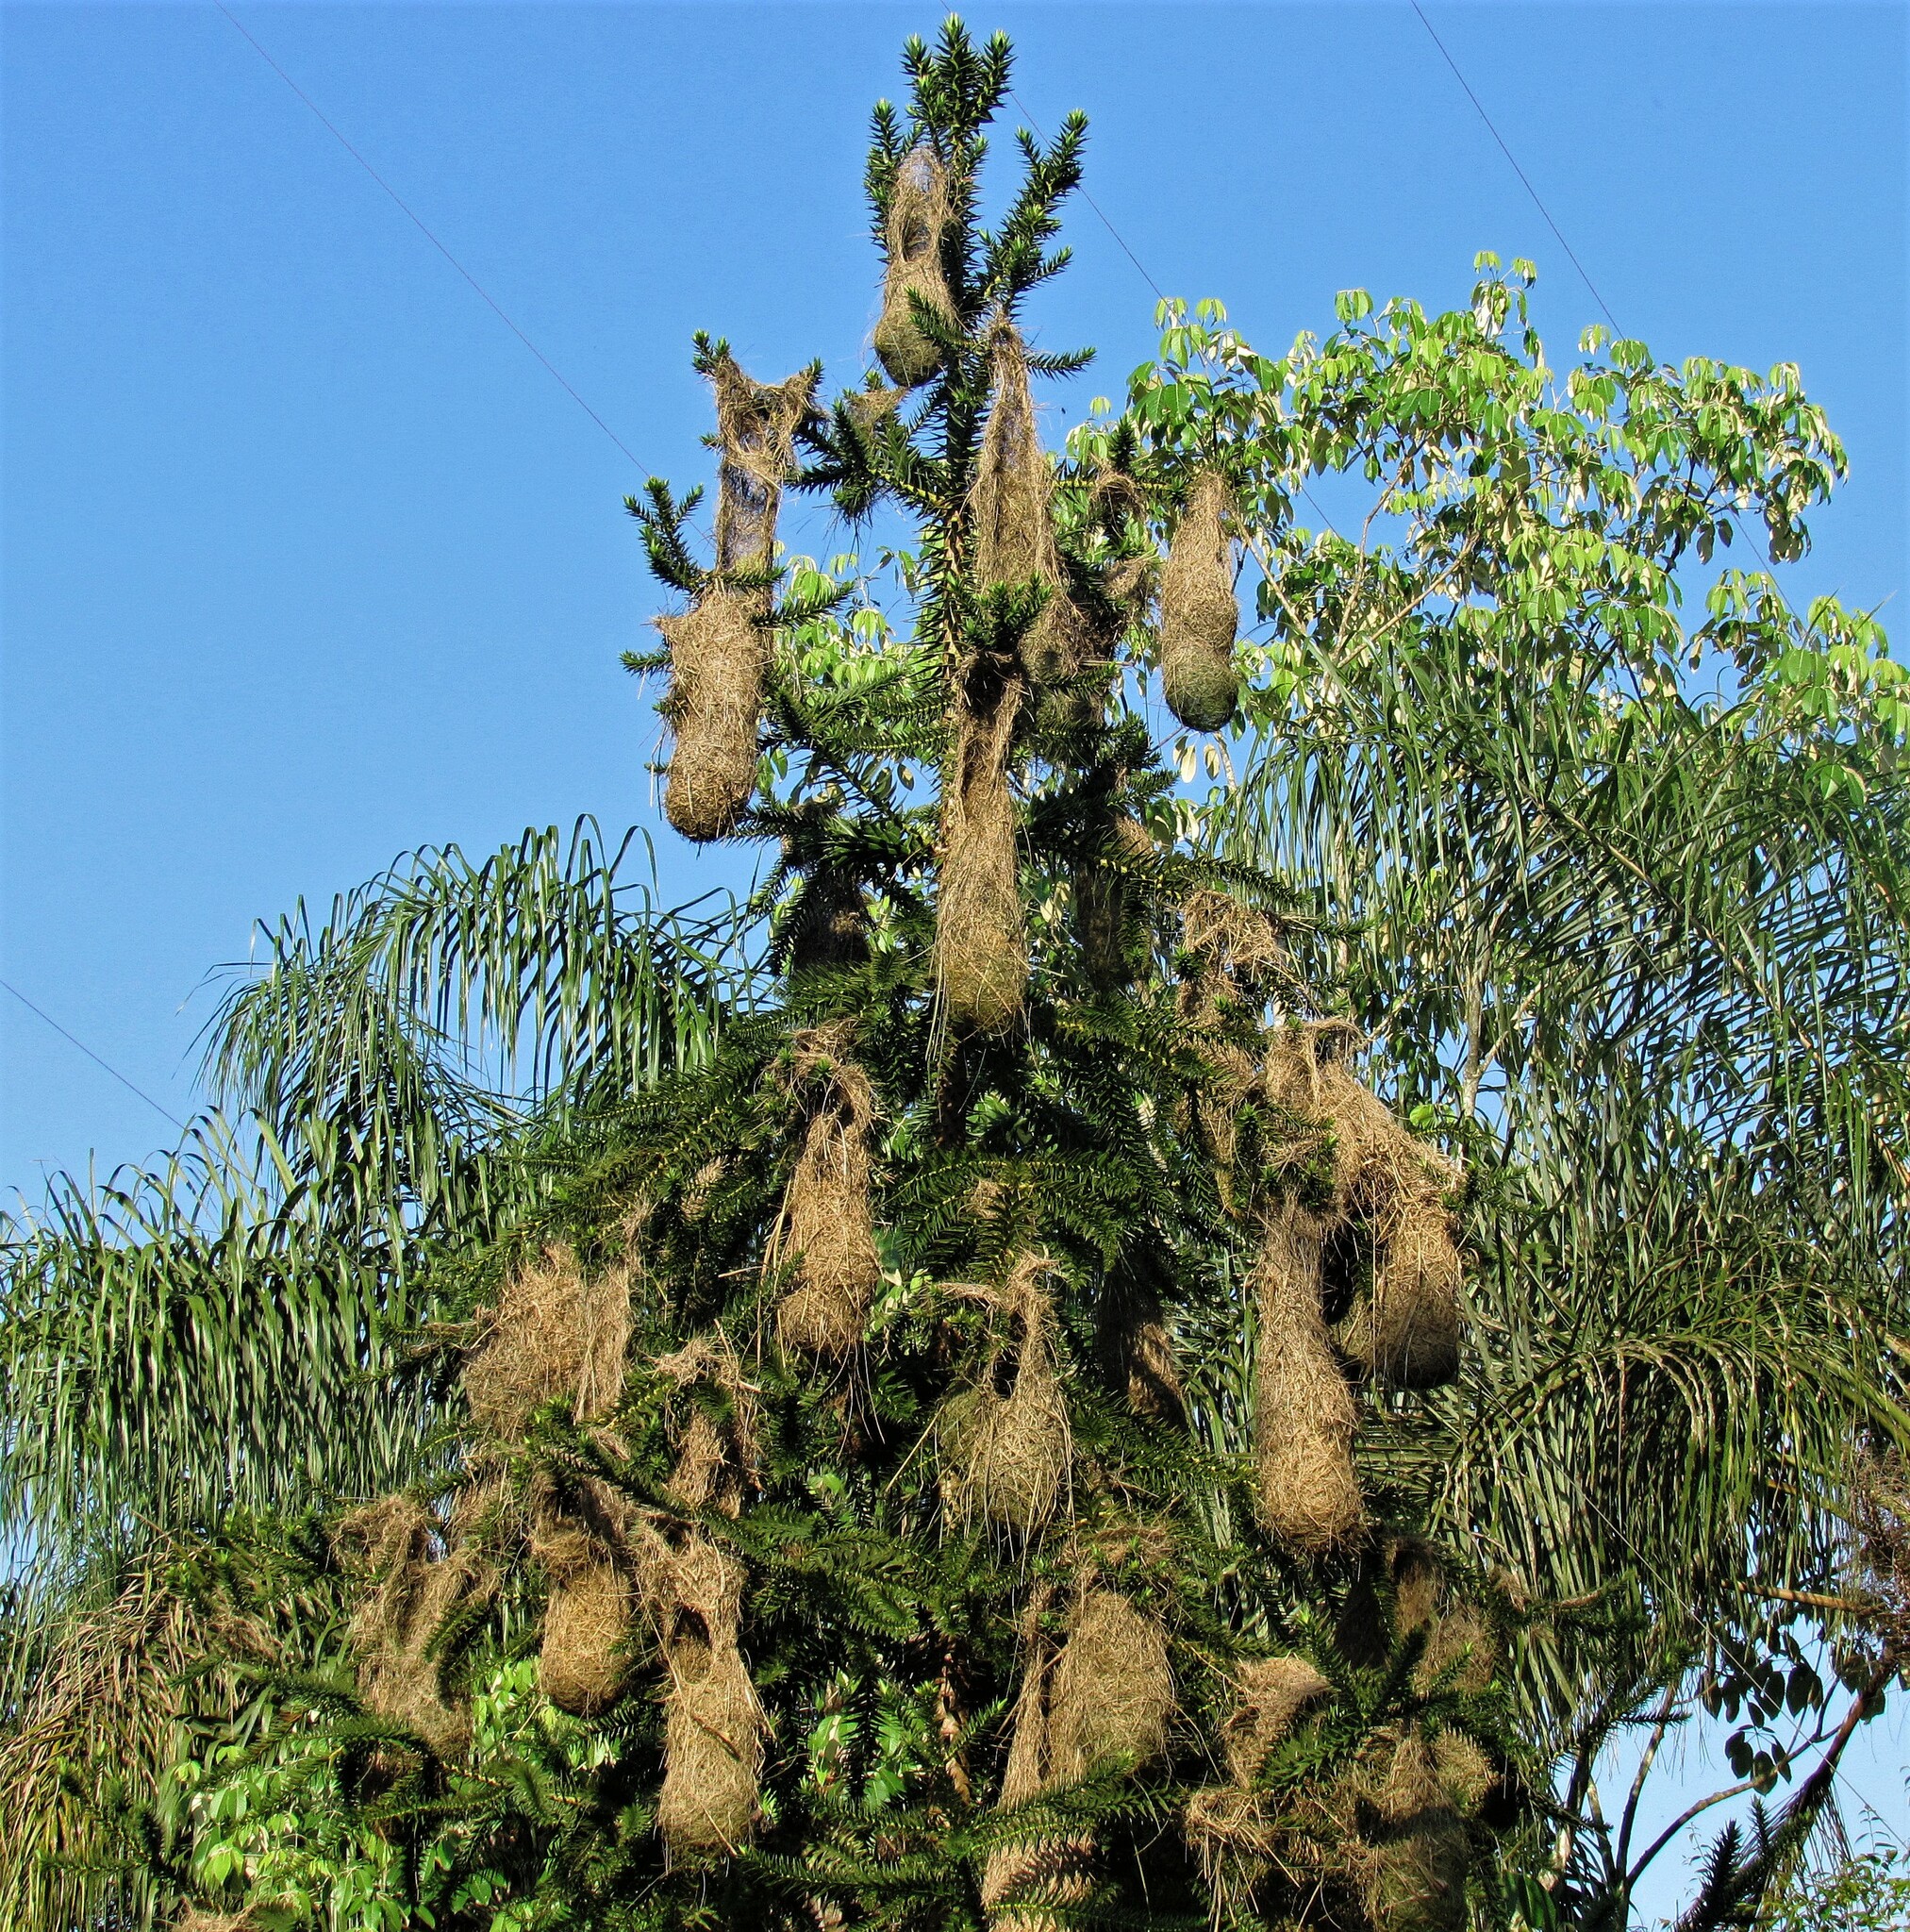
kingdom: Animalia
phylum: Chordata
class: Aves
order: Passeriformes
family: Icteridae
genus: Cacicus
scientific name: Cacicus haemorrhous
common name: Red-rumped cacique
